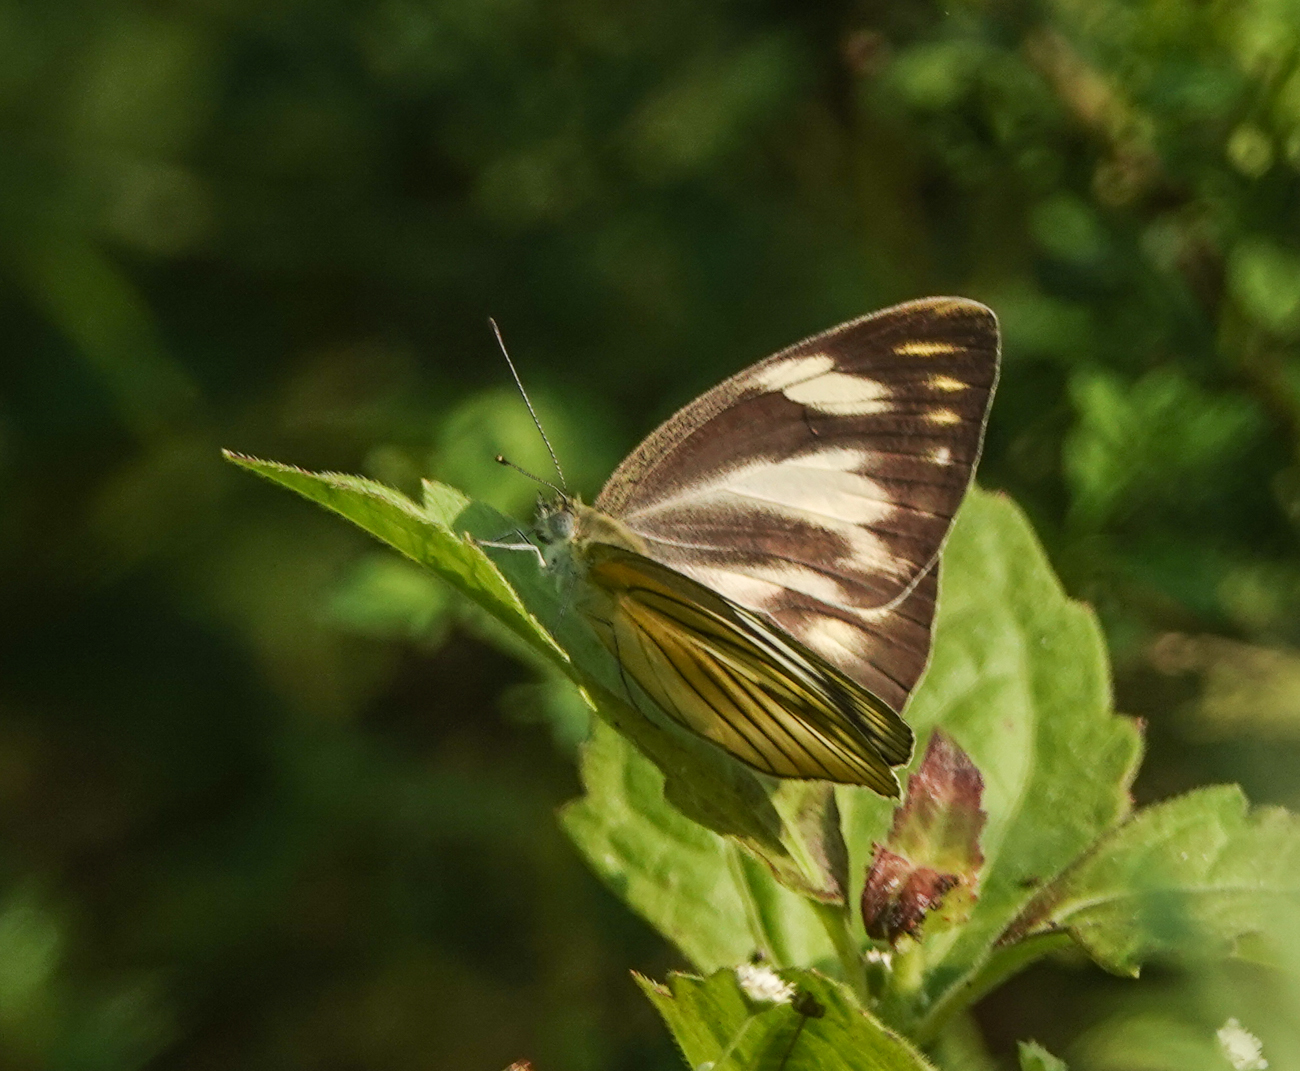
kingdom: Animalia
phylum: Arthropoda
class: Insecta
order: Lepidoptera
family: Pieridae
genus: Appias
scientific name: Appias libythea
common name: Striped albatross
